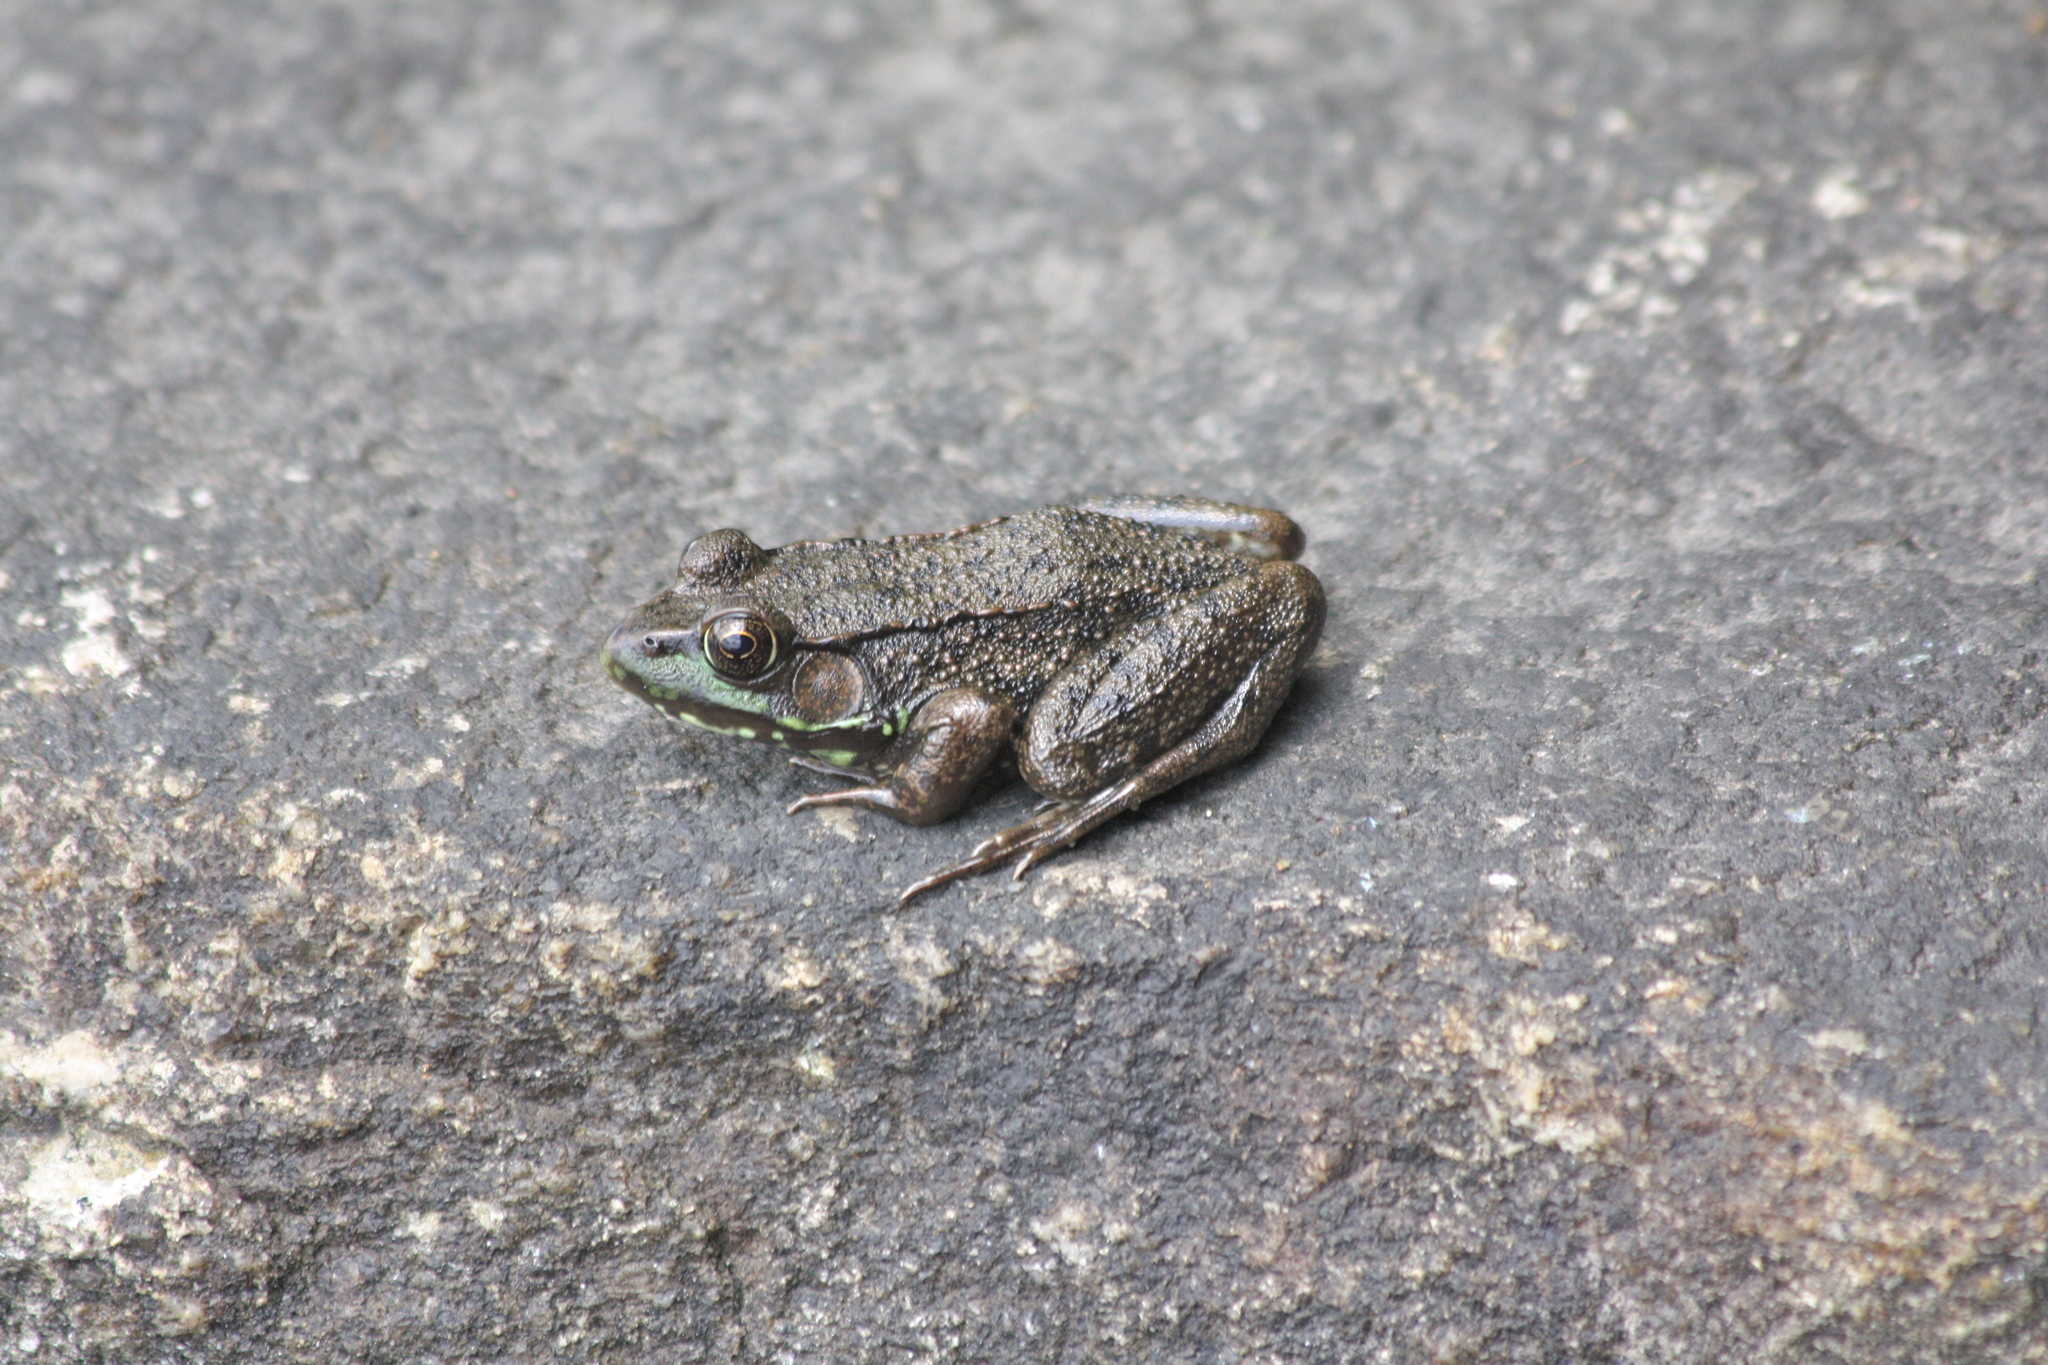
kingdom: Animalia
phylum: Chordata
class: Amphibia
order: Anura
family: Ranidae
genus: Lithobates
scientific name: Lithobates clamitans
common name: Green frog
